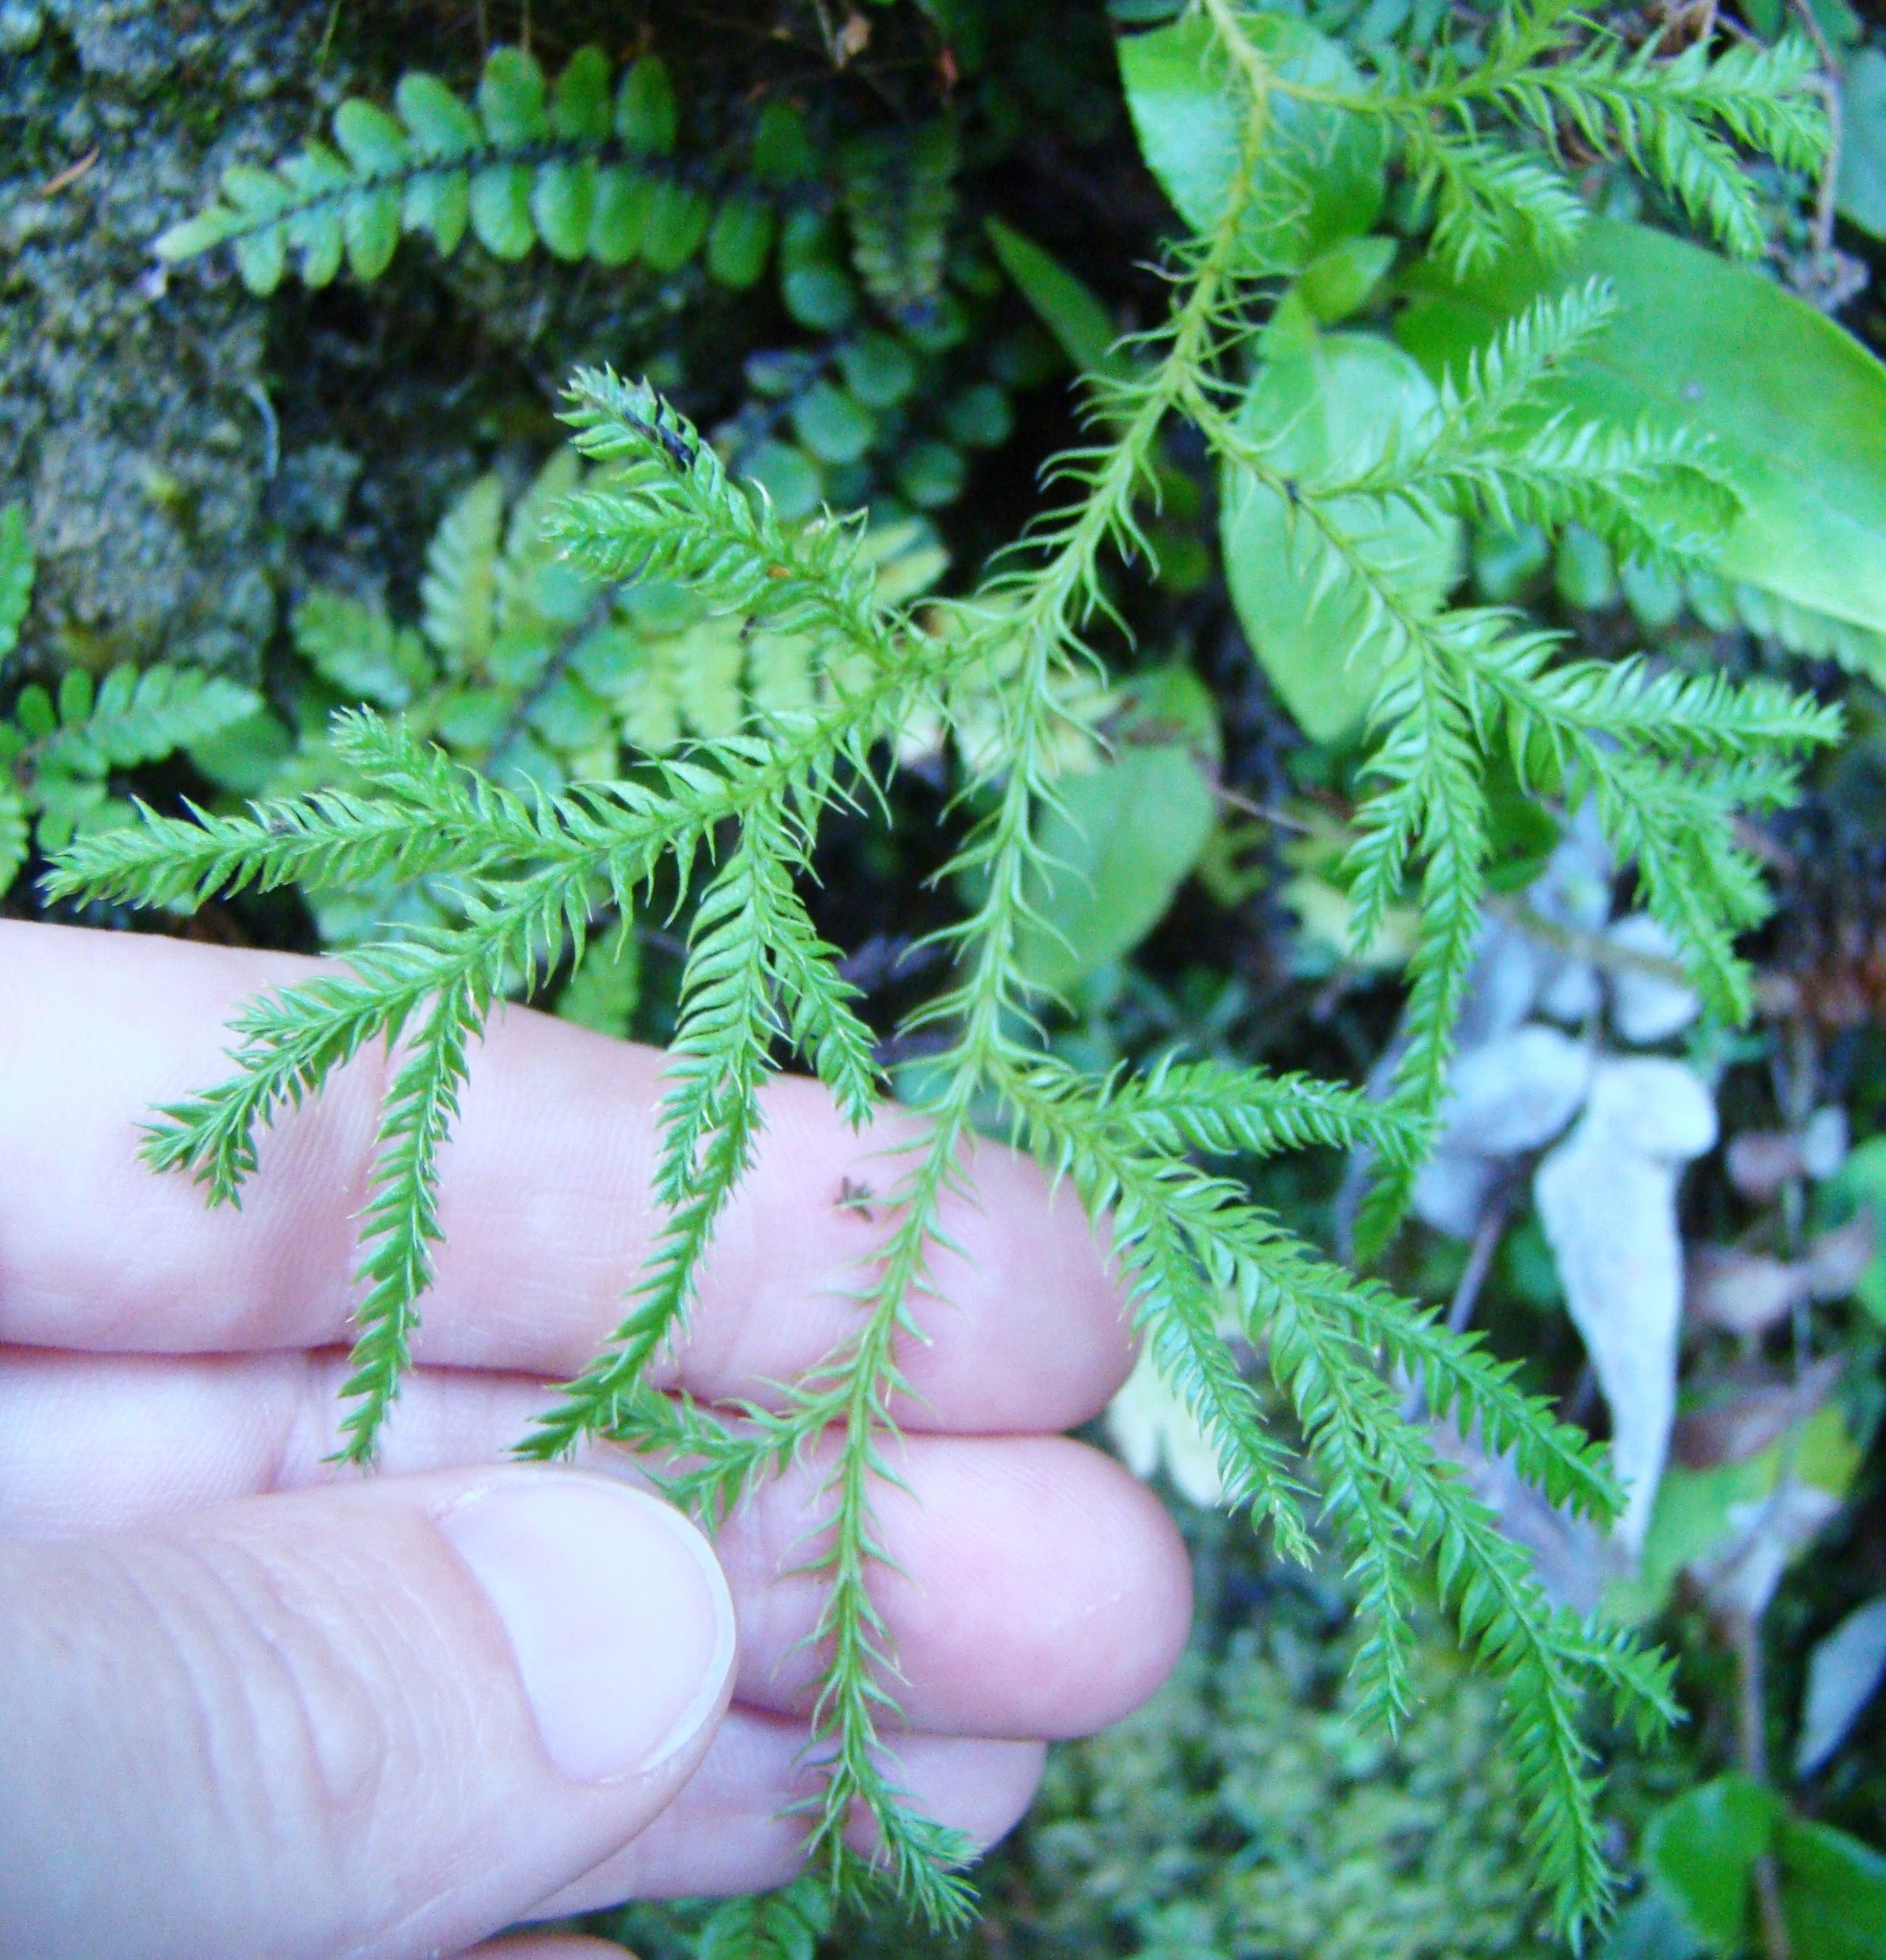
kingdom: Plantae
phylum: Tracheophyta
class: Pinopsida
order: Pinales
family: Podocarpaceae
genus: Dacrycarpus
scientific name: Dacrycarpus dacrydioides
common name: White pine
